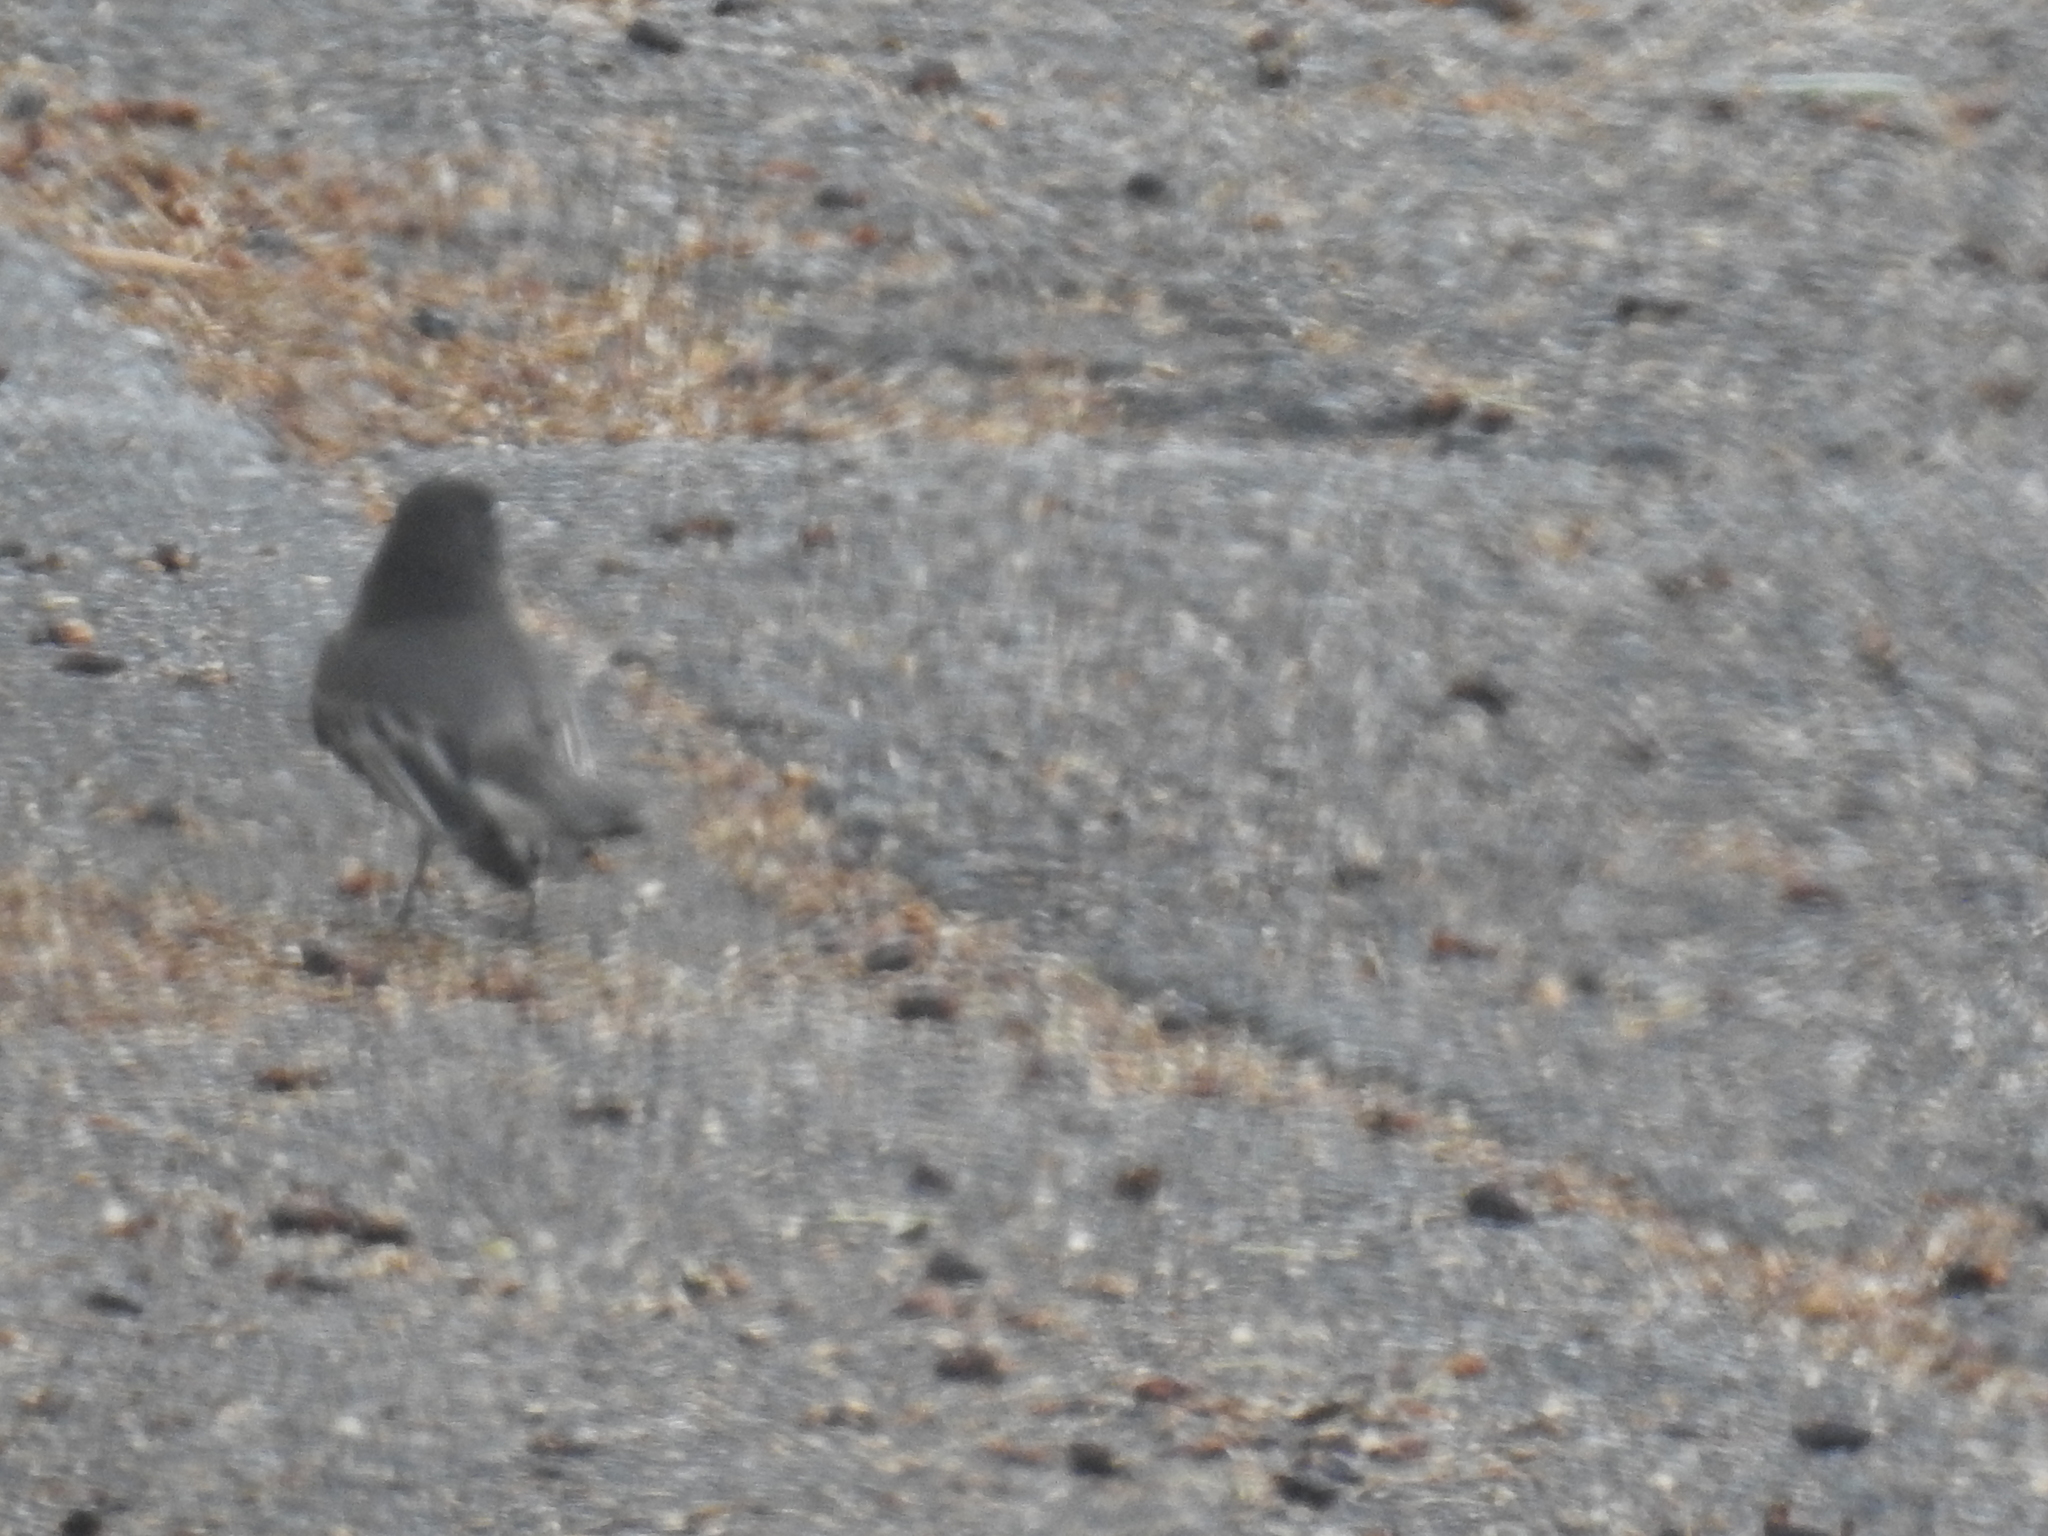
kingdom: Animalia
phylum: Chordata
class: Aves
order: Passeriformes
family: Tyrannidae
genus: Sayornis
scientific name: Sayornis nigricans
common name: Black phoebe
